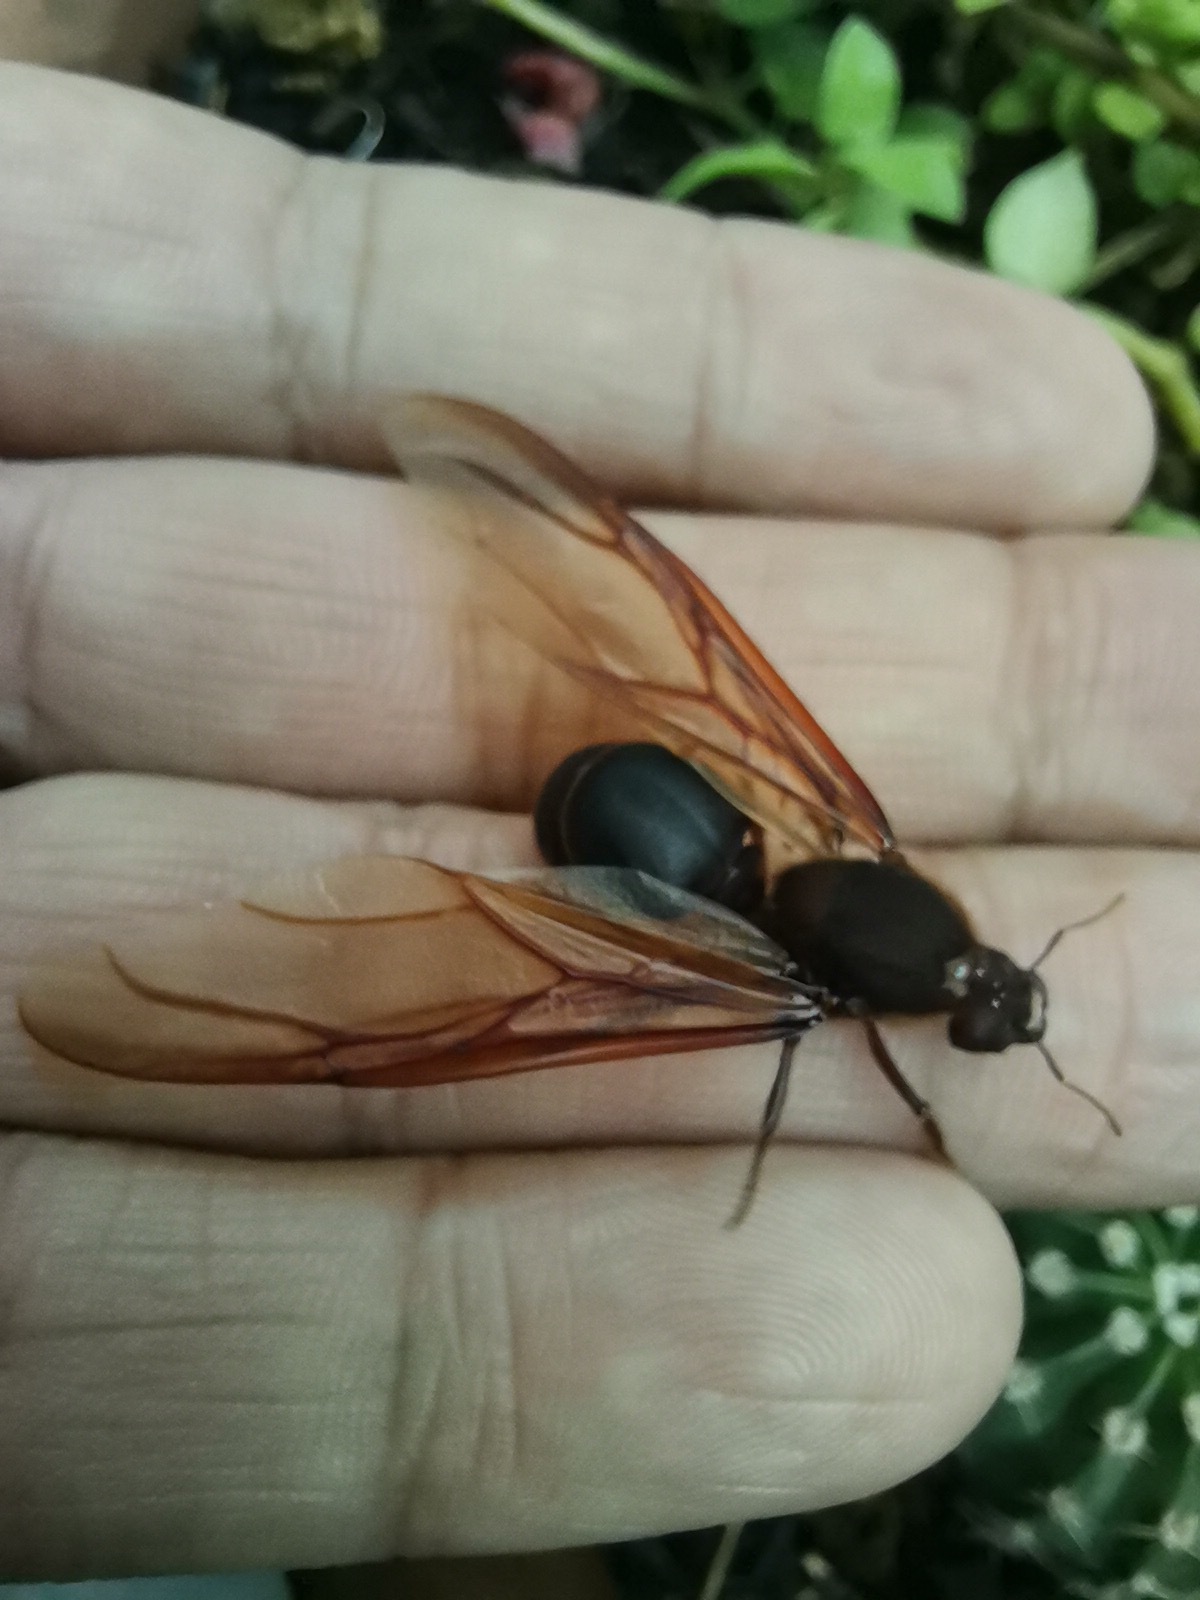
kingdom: Animalia
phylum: Arthropoda
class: Insecta
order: Hymenoptera
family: Formicidae
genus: Atta
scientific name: Atta mexicana
